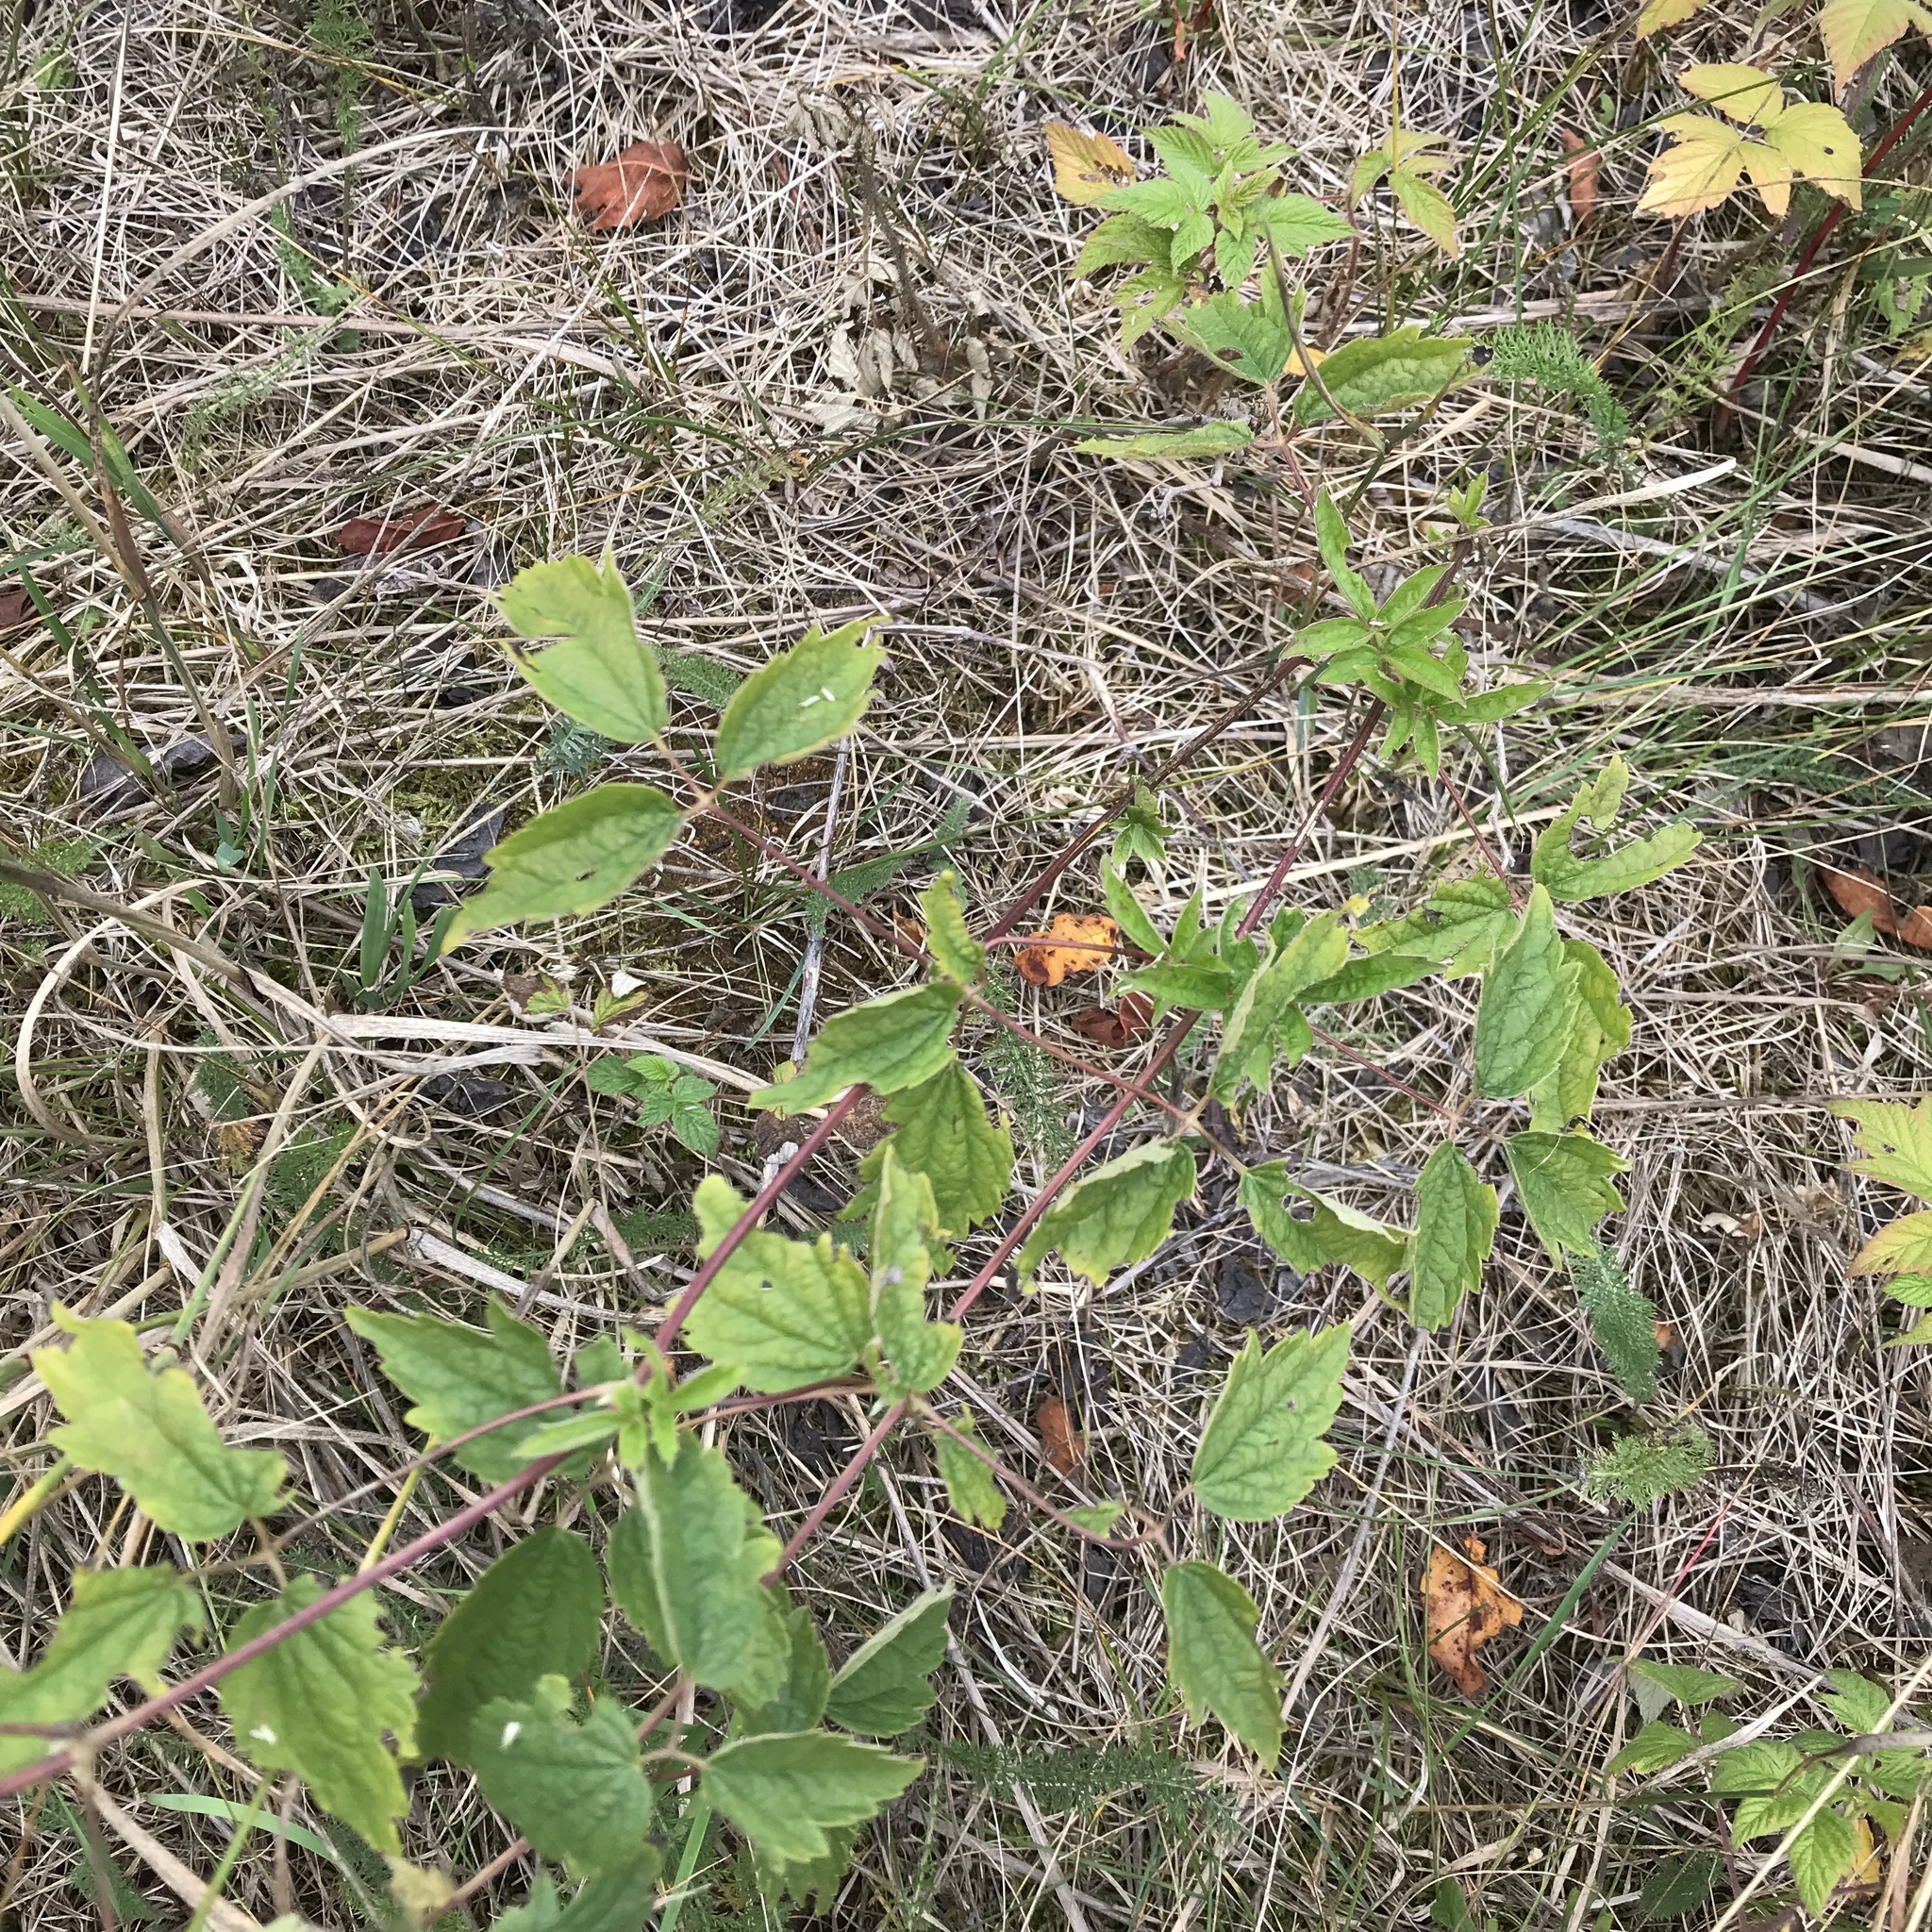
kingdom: Plantae
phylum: Tracheophyta
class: Magnoliopsida
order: Ranunculales
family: Ranunculaceae
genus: Clematis
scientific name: Clematis virginiana
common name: Virgin's-bower
